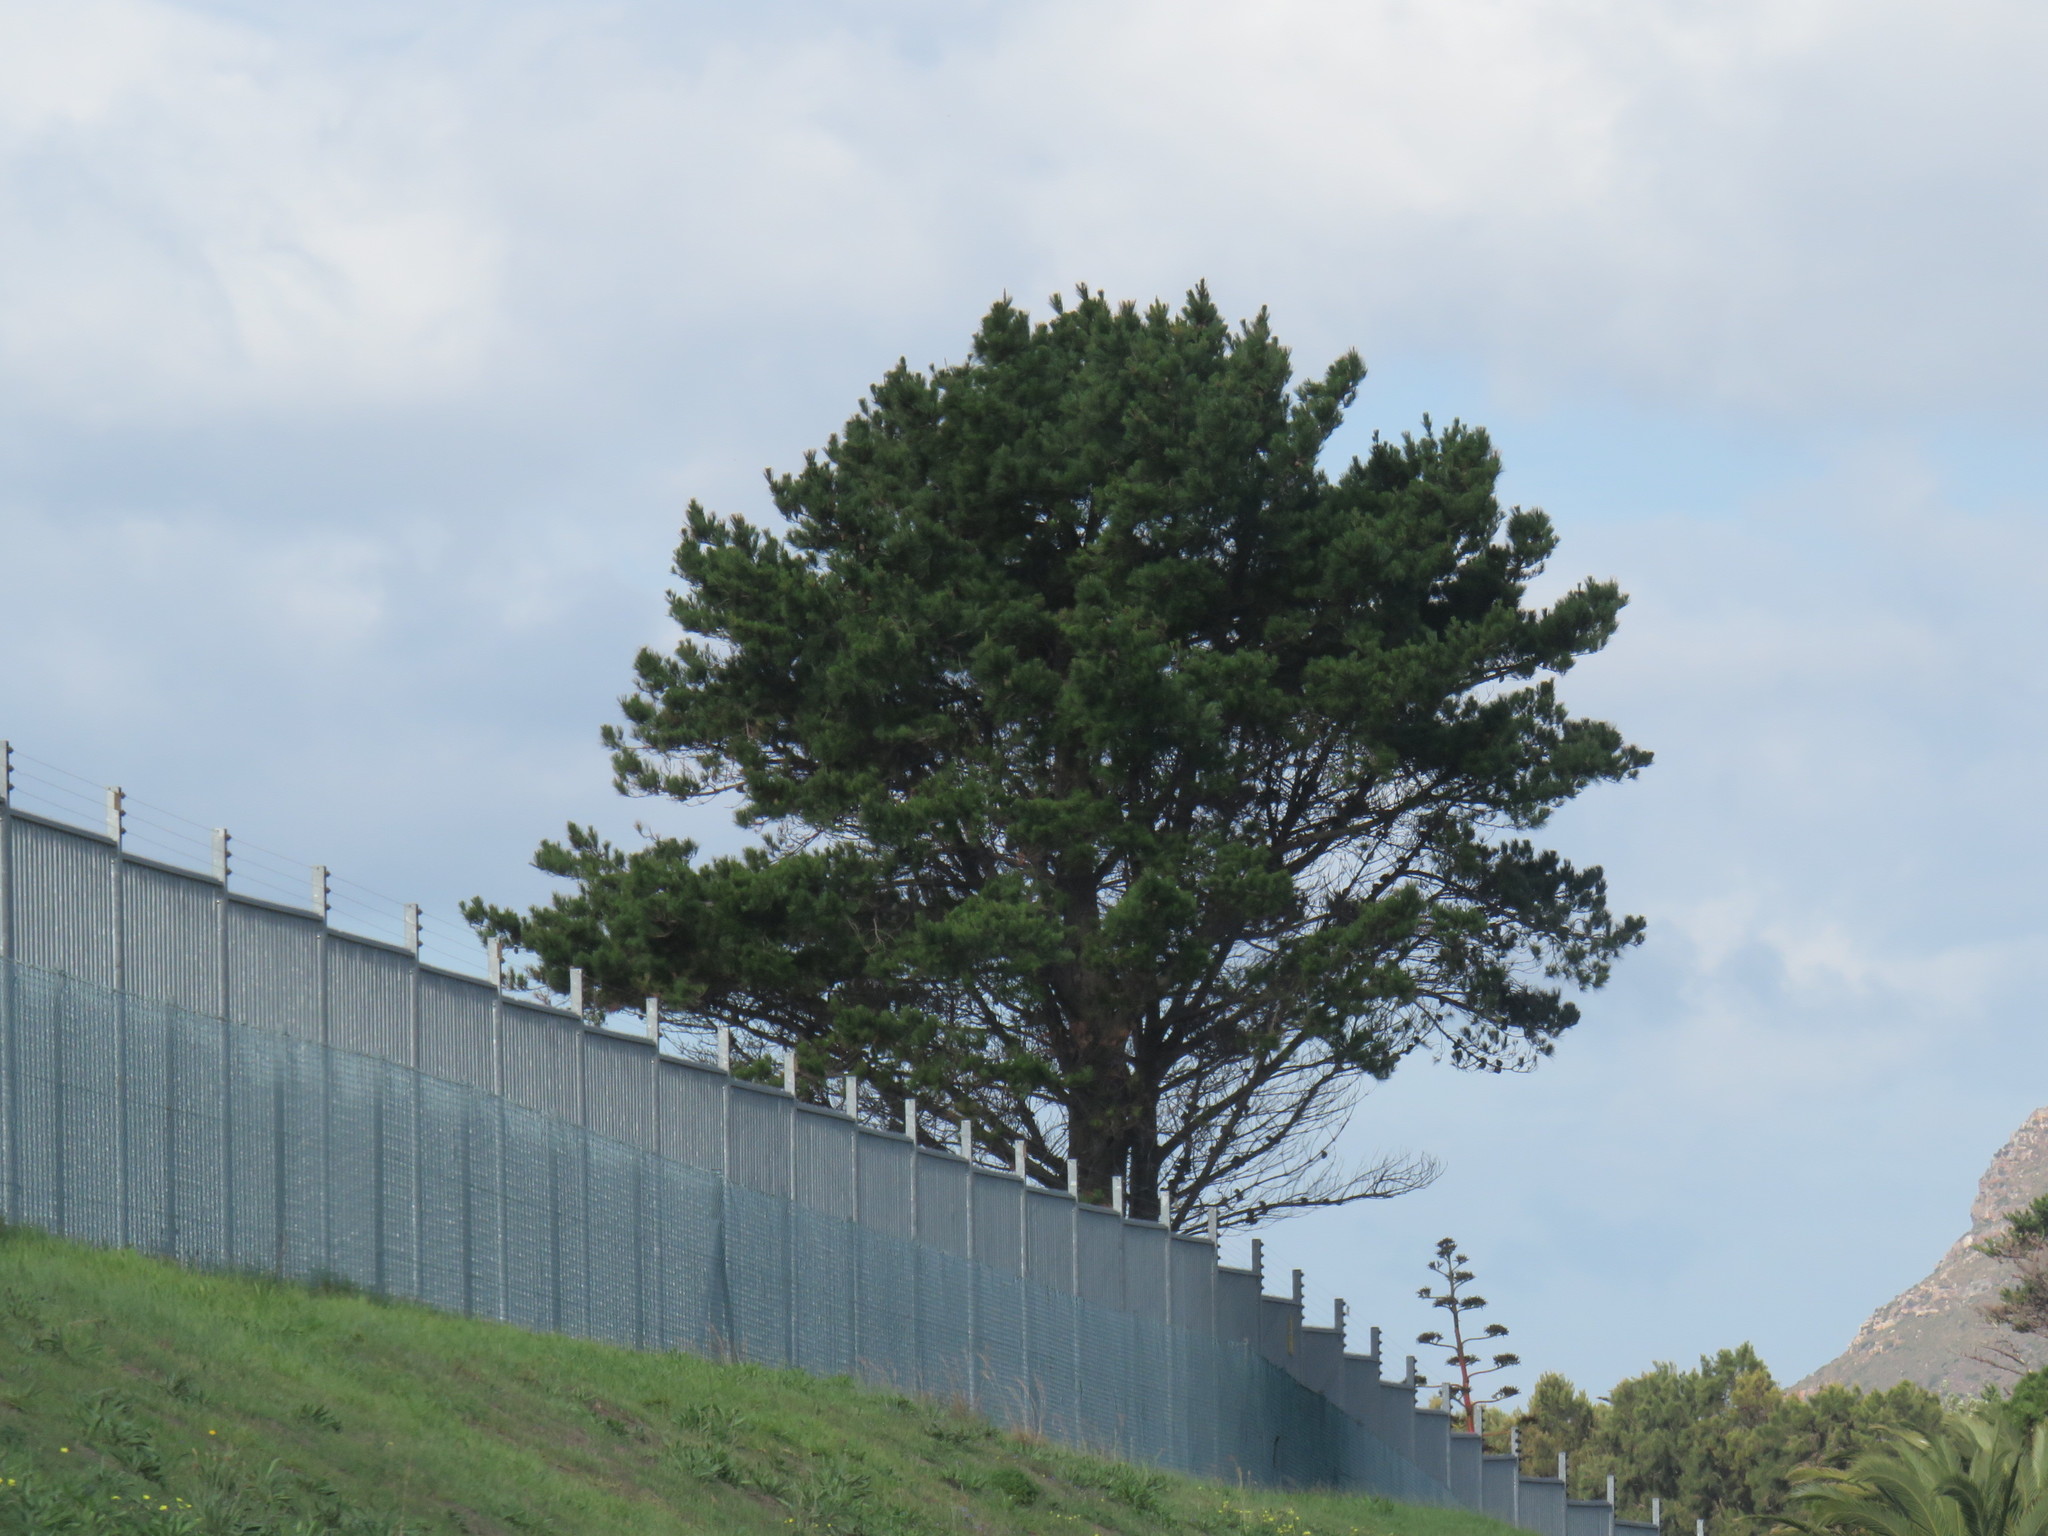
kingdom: Plantae
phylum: Tracheophyta
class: Pinopsida
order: Pinales
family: Pinaceae
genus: Pinus
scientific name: Pinus radiata
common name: Monterey pine
